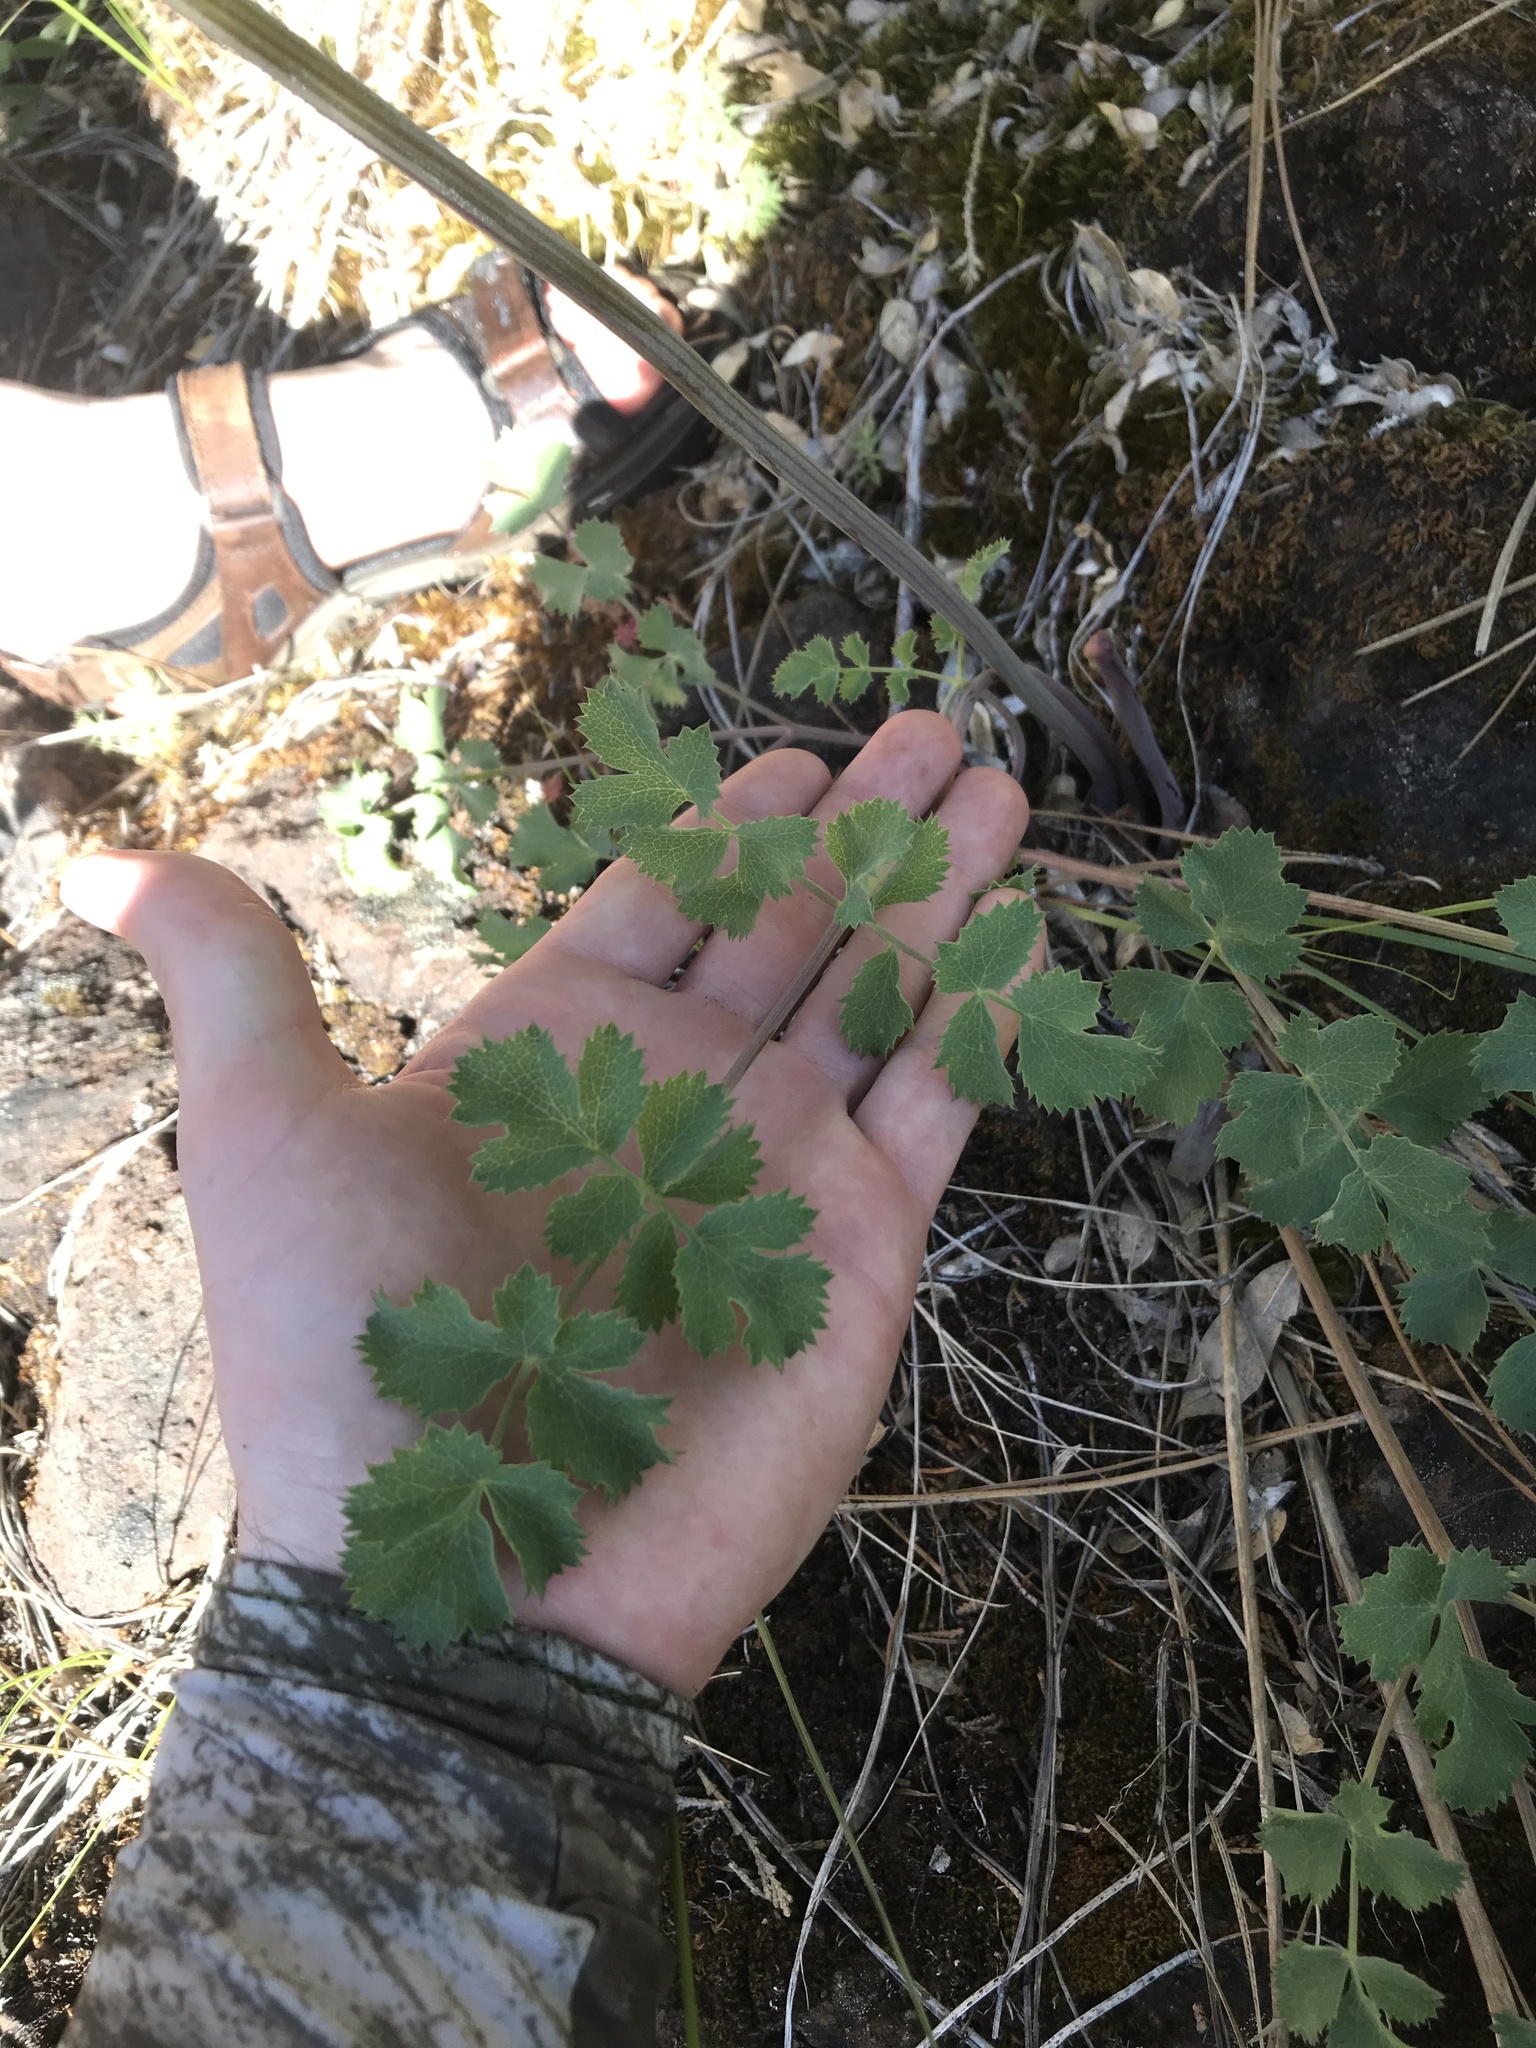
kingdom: Plantae
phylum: Tracheophyta
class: Magnoliopsida
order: Apiales
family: Apiaceae
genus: Lomatium
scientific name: Lomatium howellii
